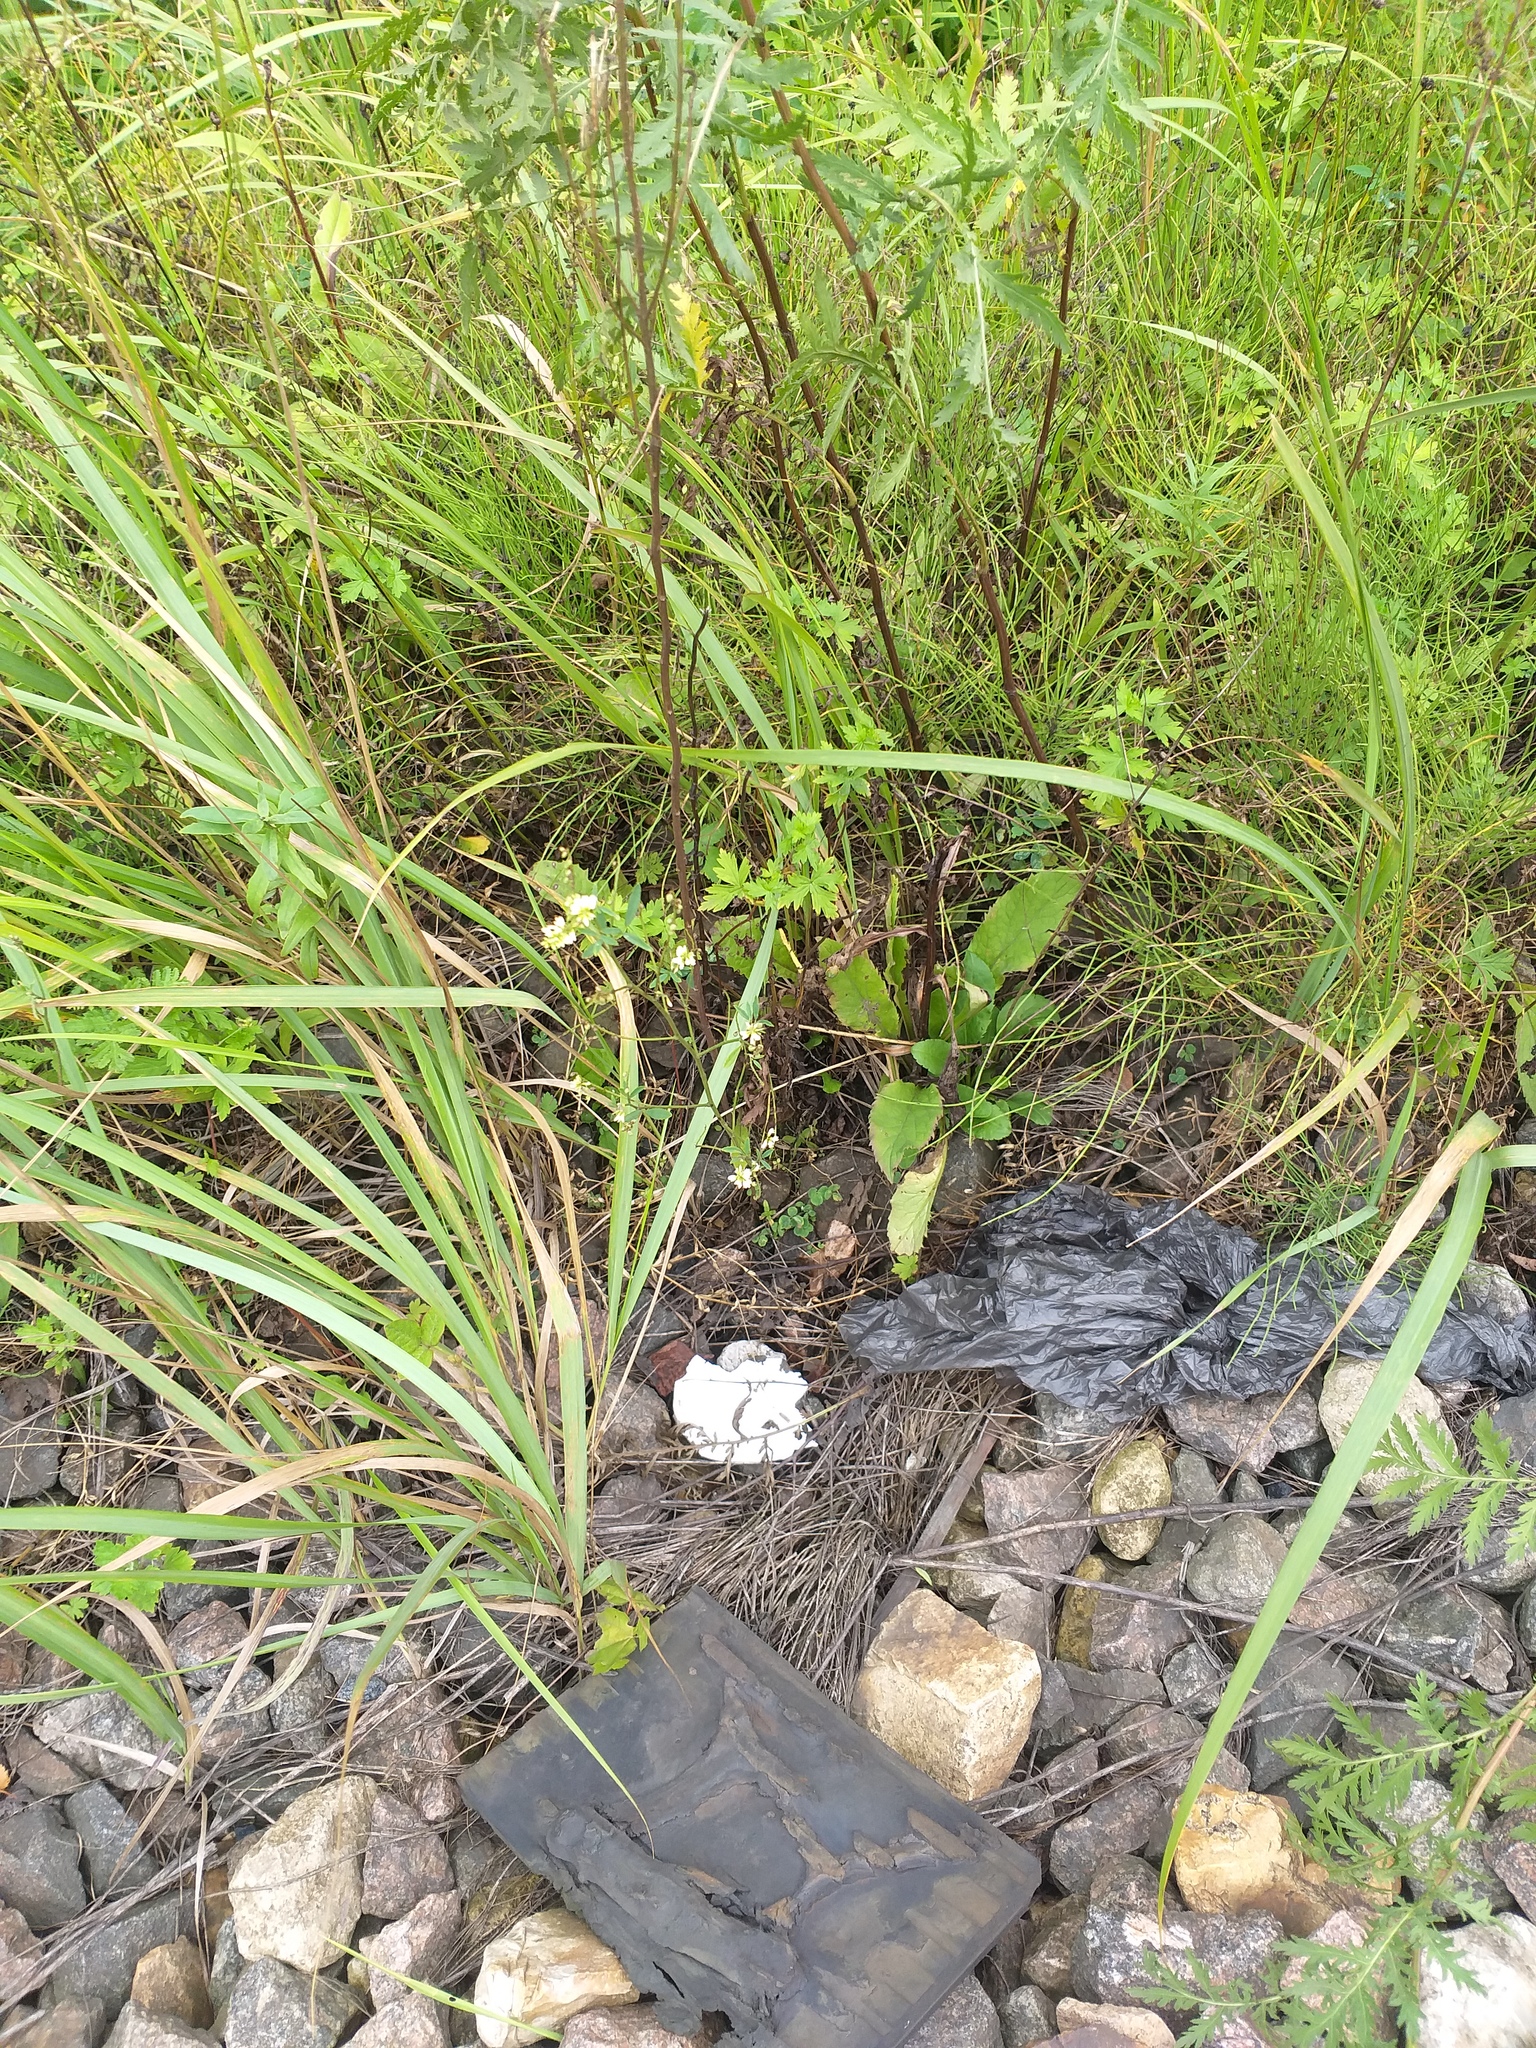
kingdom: Plantae
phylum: Tracheophyta
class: Magnoliopsida
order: Fabales
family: Fabaceae
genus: Melilotus
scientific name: Melilotus albus
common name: White melilot
